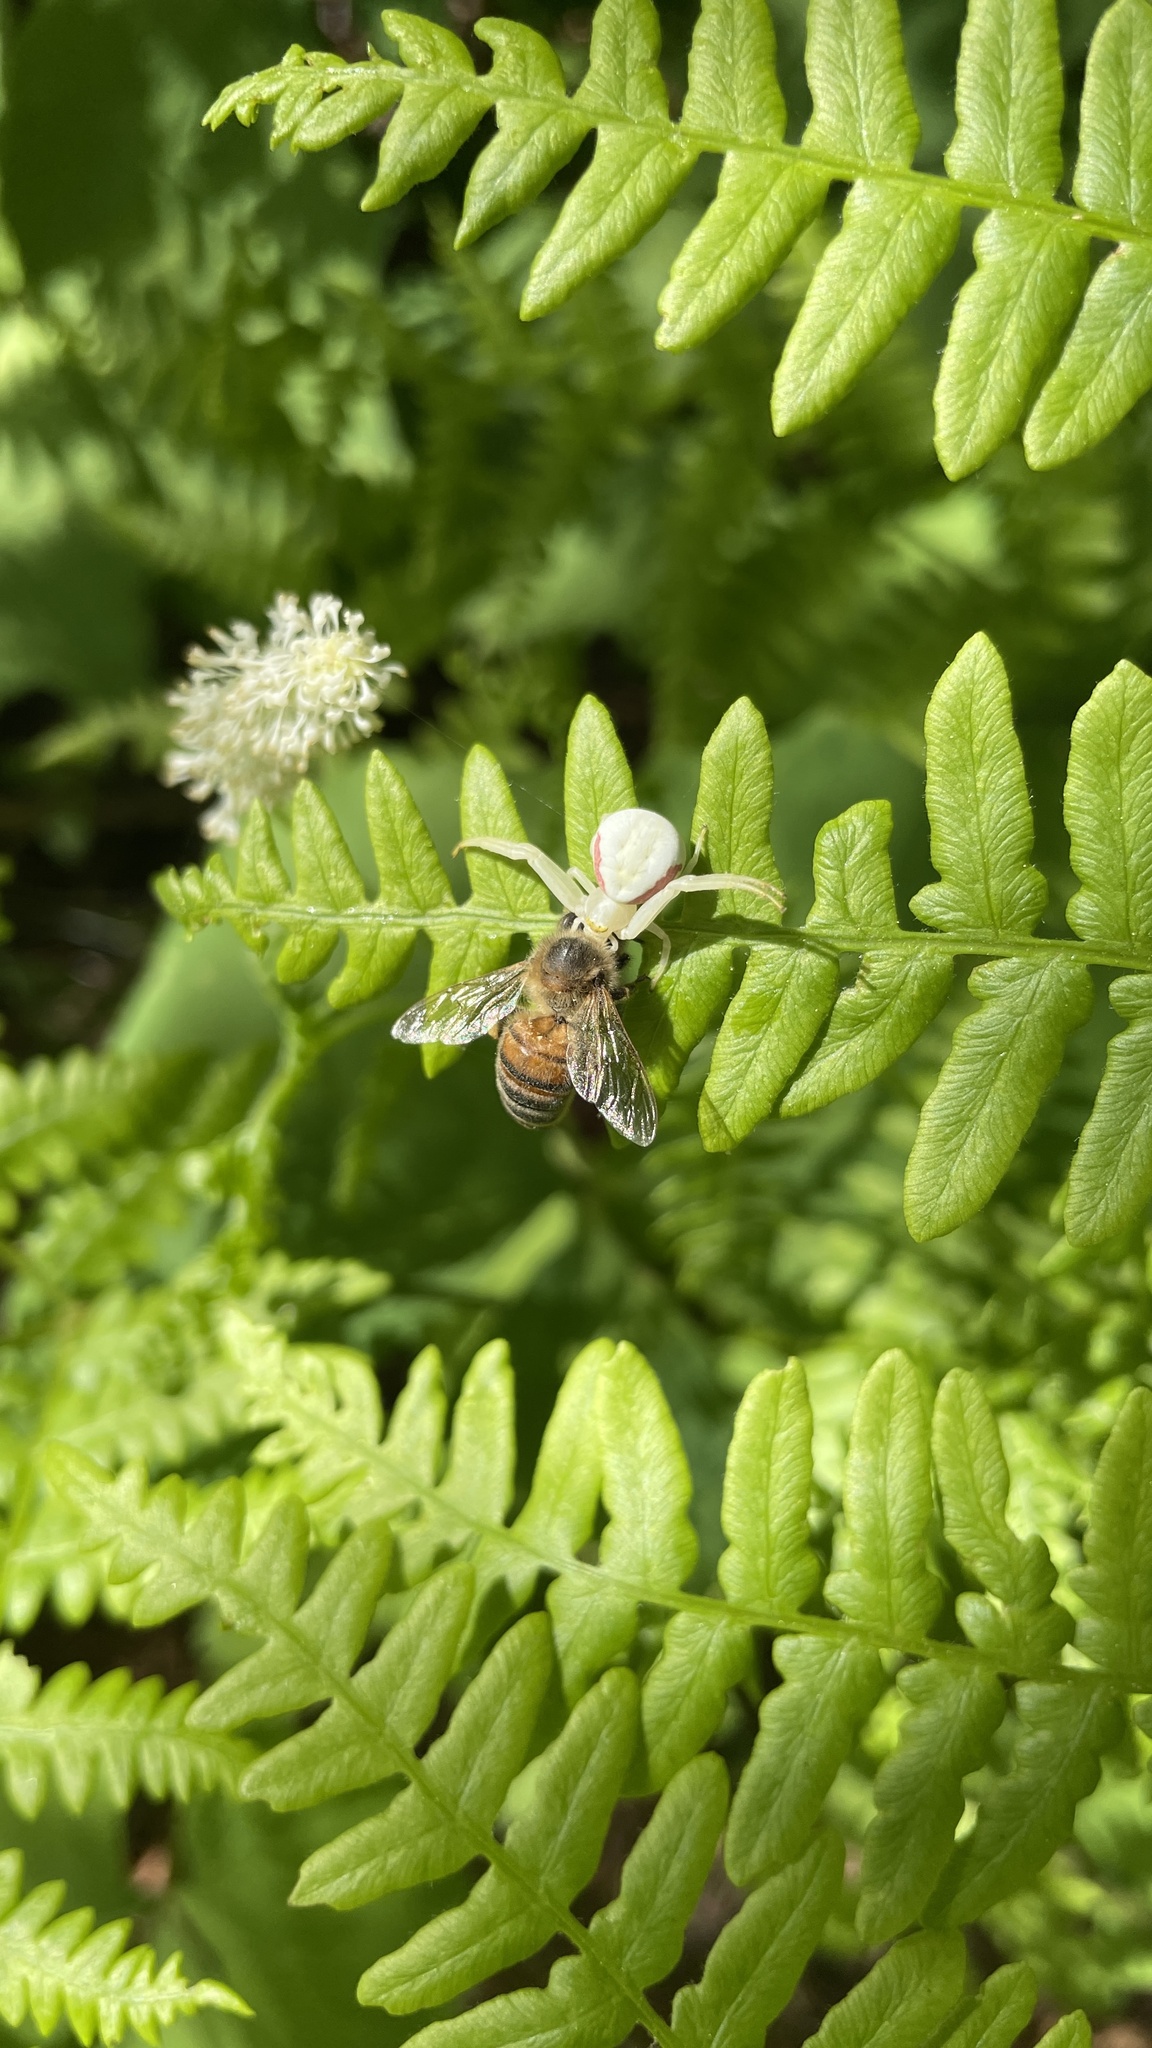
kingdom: Animalia
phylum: Arthropoda
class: Insecta
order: Hymenoptera
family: Apidae
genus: Apis
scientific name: Apis mellifera
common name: Honey bee
